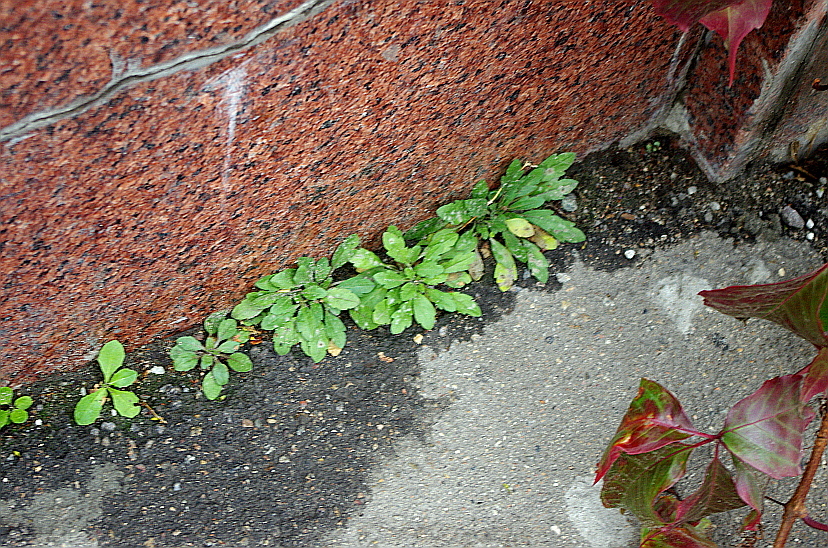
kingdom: Plantae
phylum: Tracheophyta
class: Magnoliopsida
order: Asterales
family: Asteraceae
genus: Erigeron
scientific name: Erigeron canadensis
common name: Canadian fleabane
